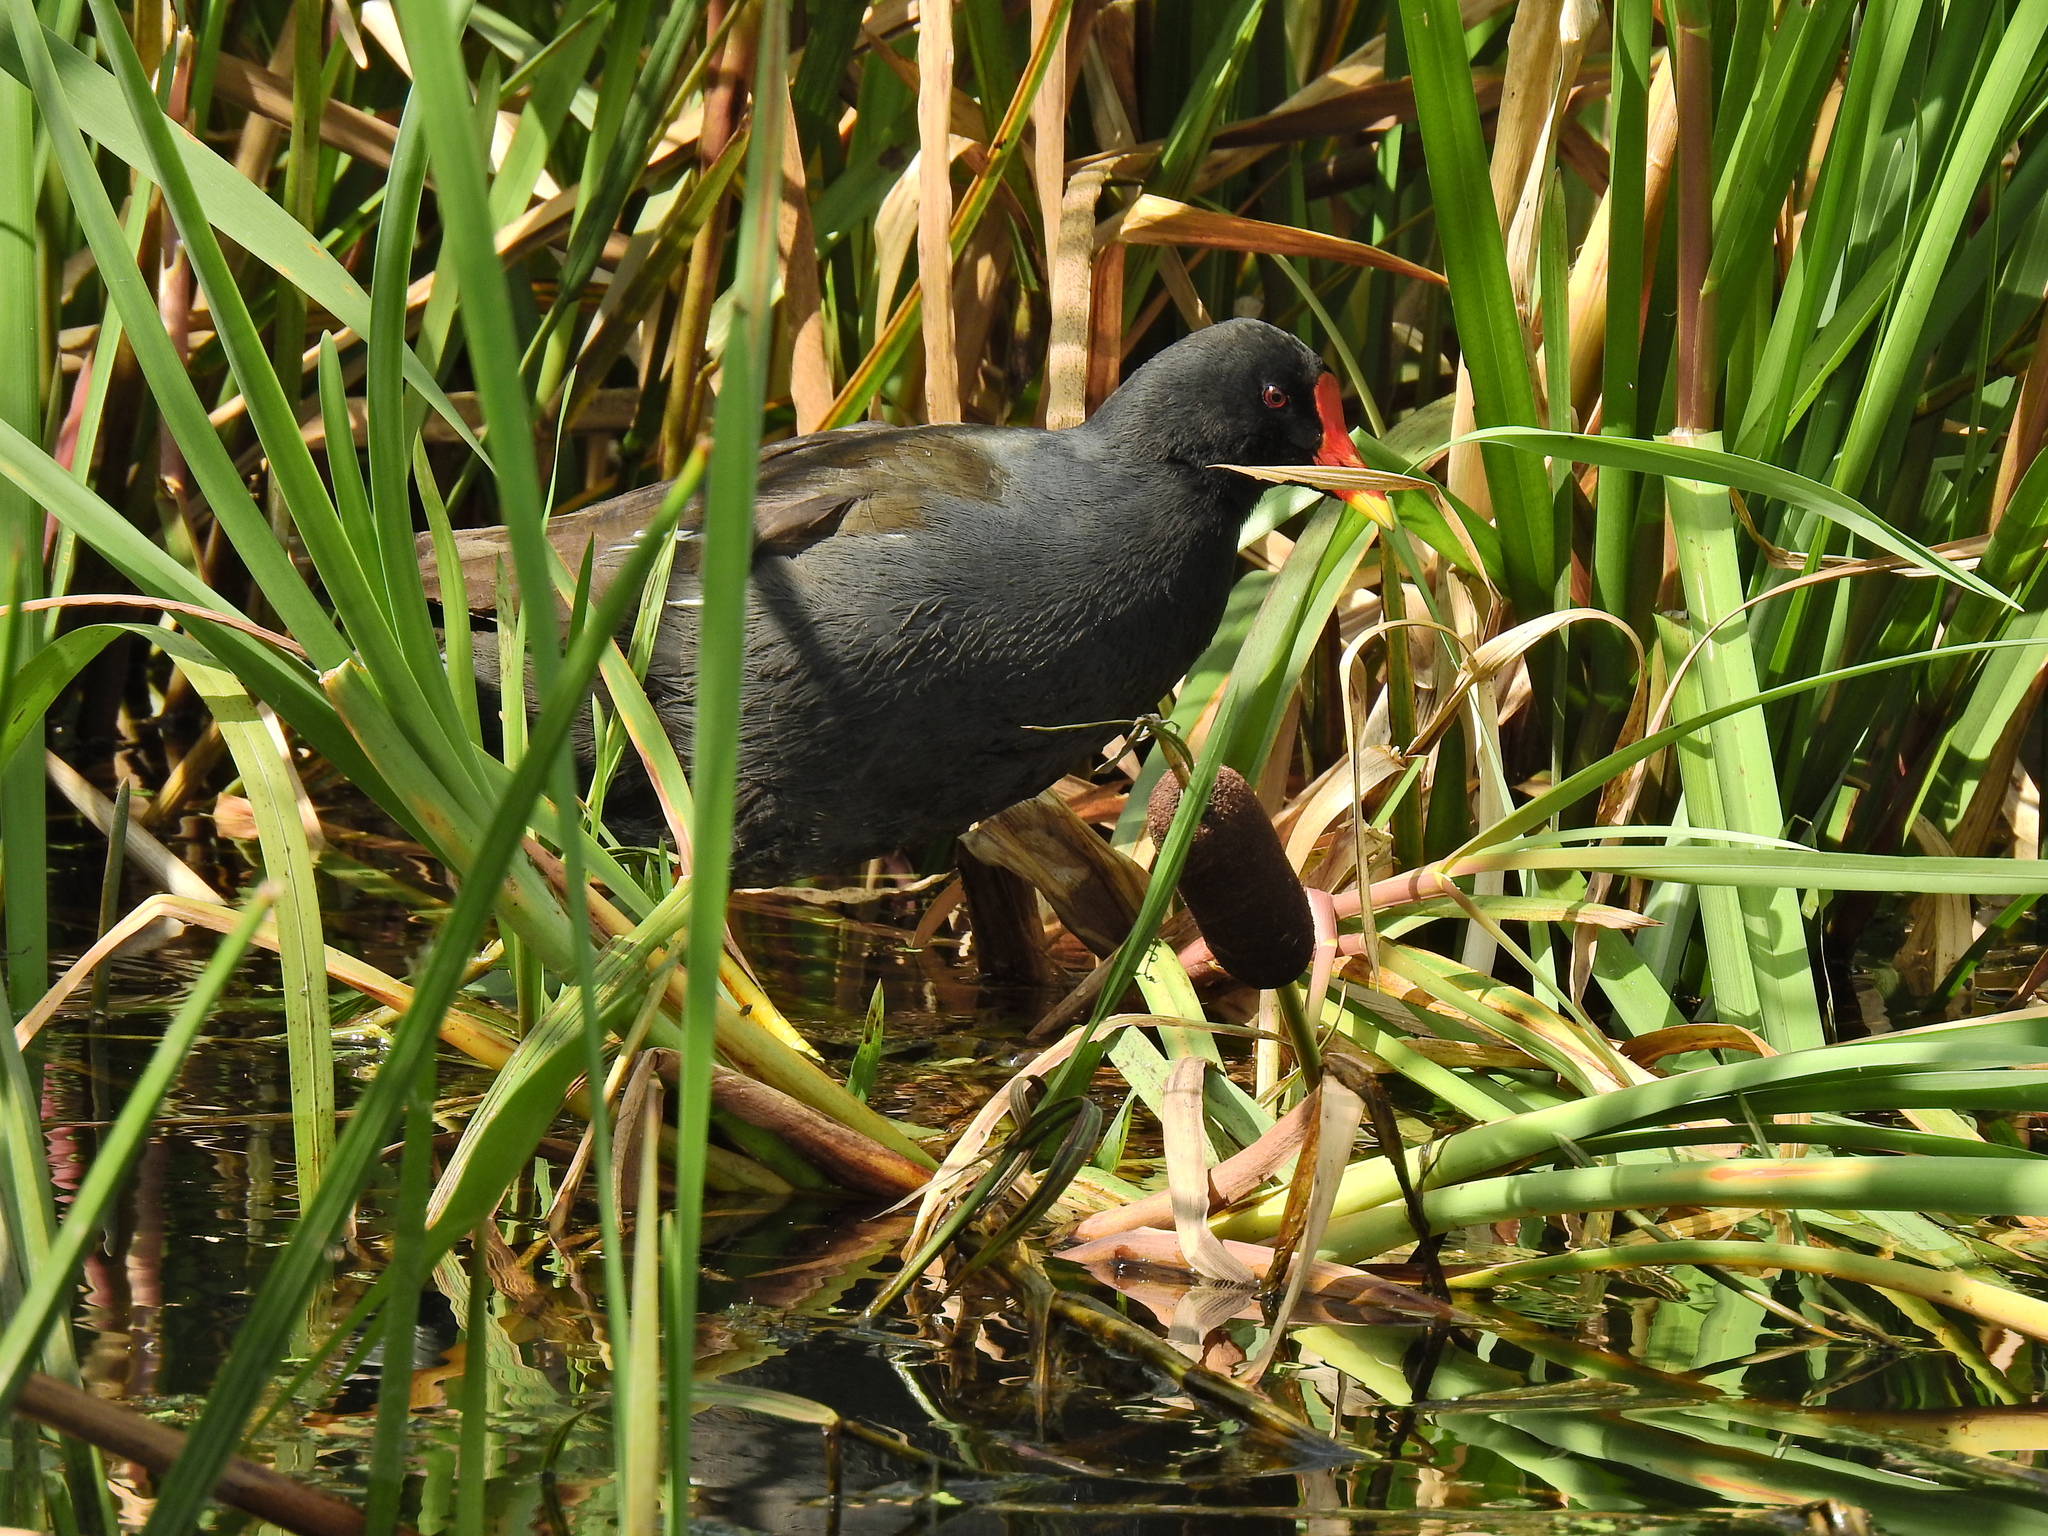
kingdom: Animalia
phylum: Chordata
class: Aves
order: Gruiformes
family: Rallidae
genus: Gallinula
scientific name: Gallinula chloropus
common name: Common moorhen
